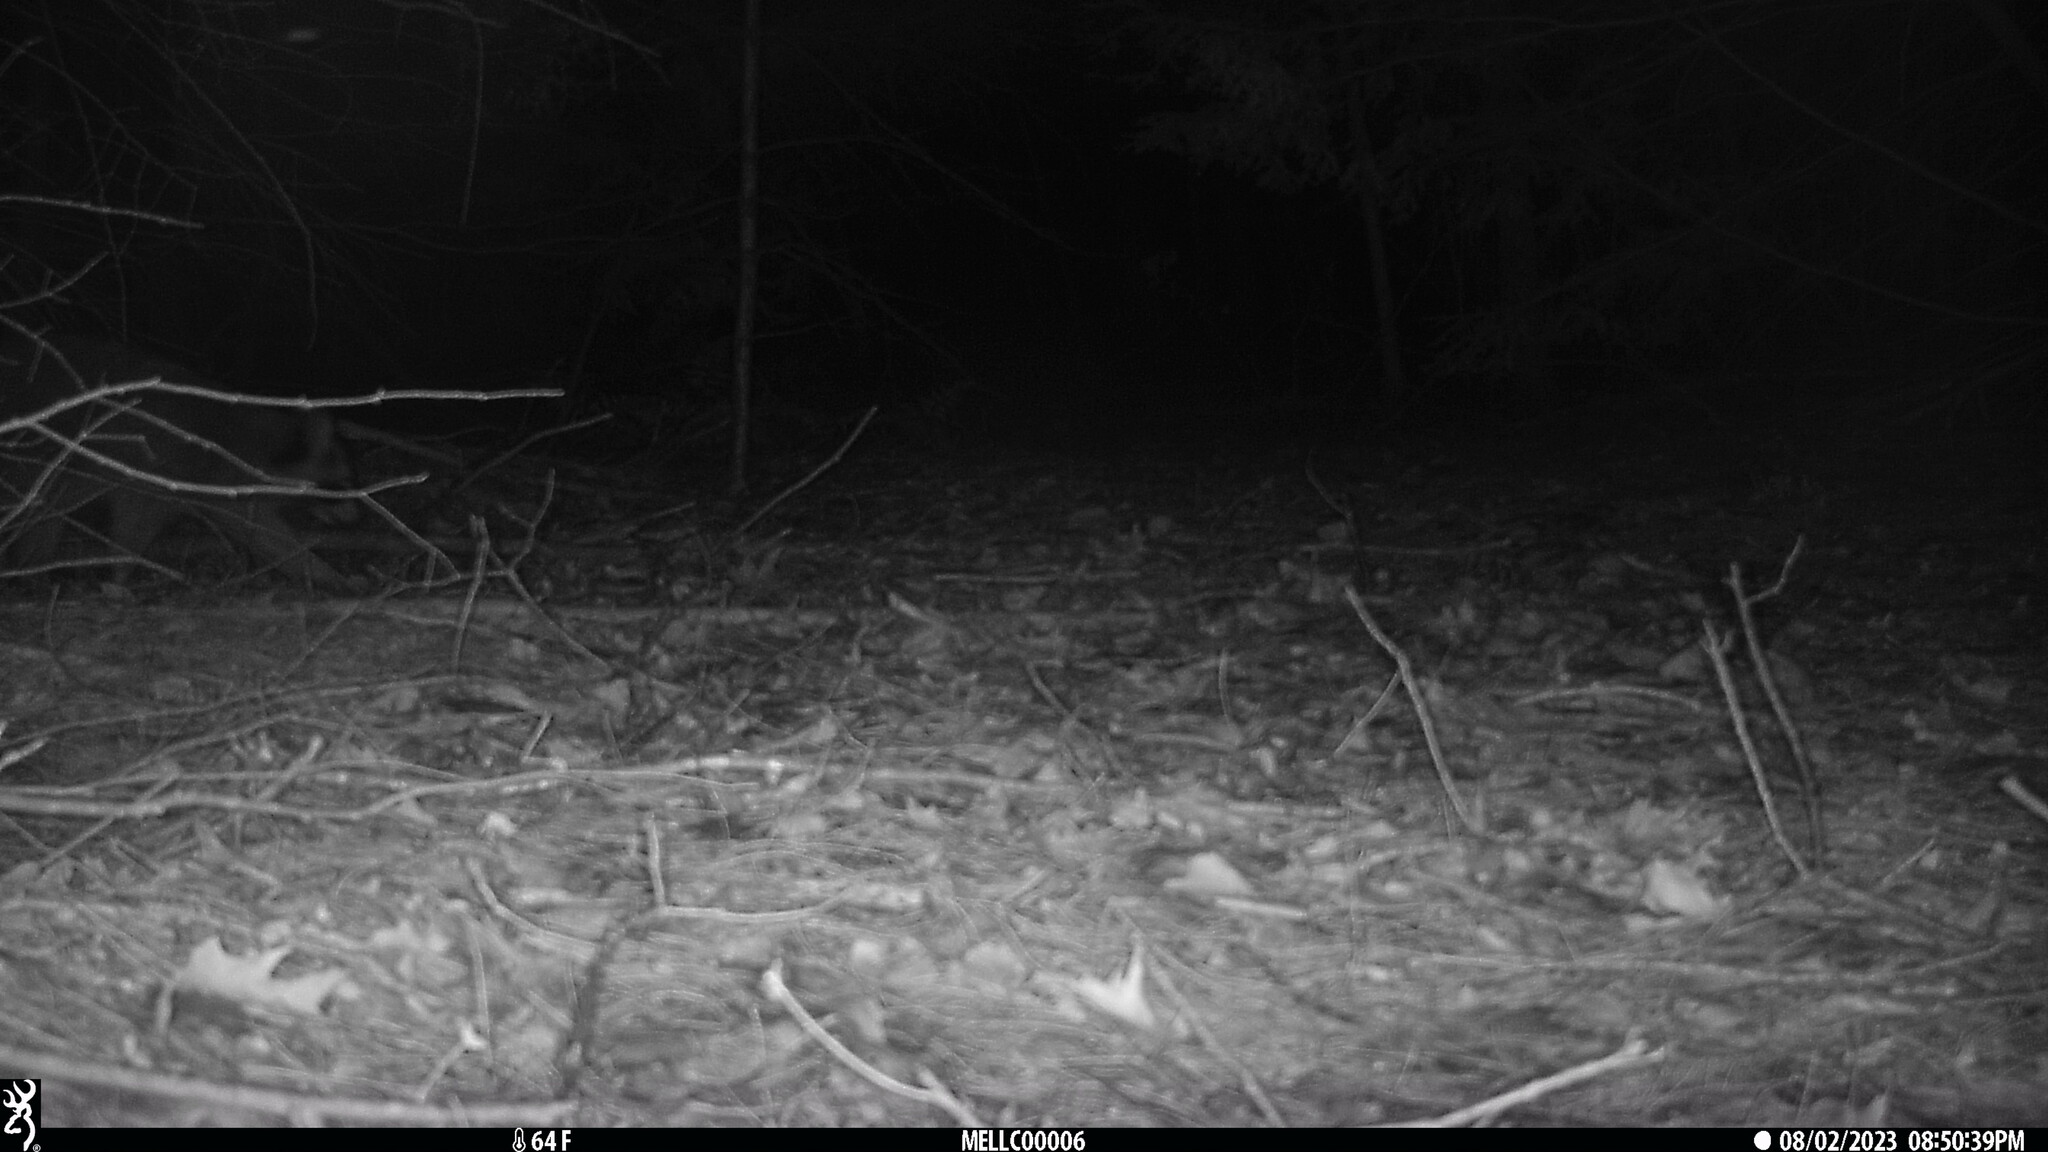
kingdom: Animalia
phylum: Chordata
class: Mammalia
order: Carnivora
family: Procyonidae
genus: Procyon
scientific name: Procyon lotor
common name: Raccoon
